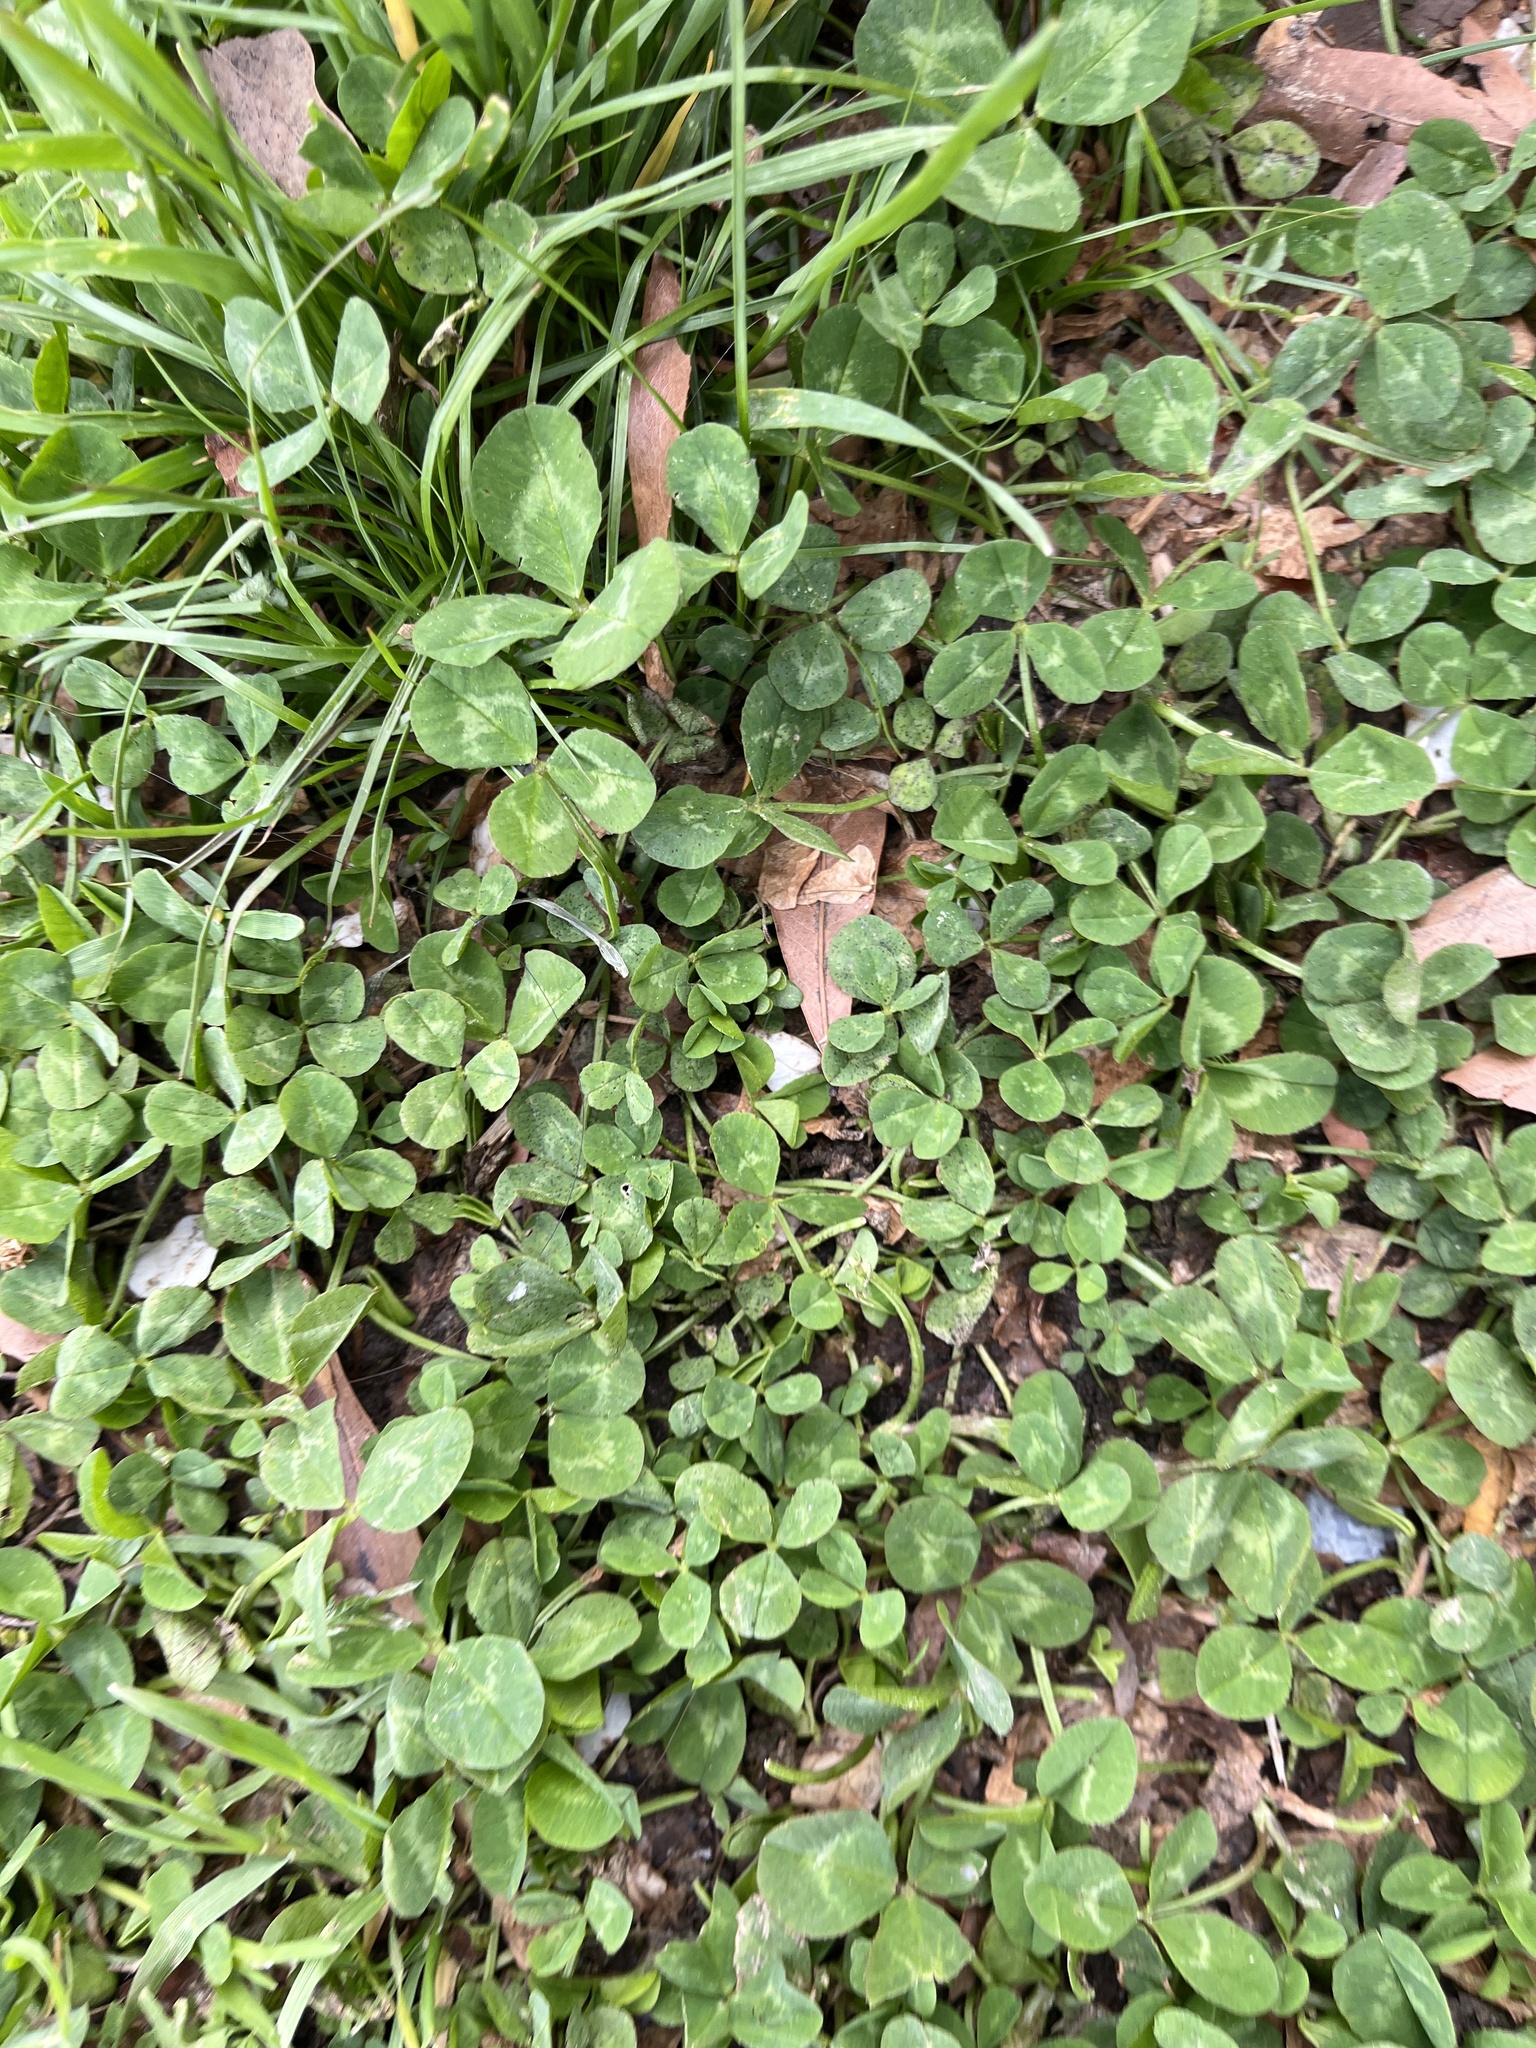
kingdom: Plantae
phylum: Tracheophyta
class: Magnoliopsida
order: Fabales
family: Fabaceae
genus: Trifolium
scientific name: Trifolium repens
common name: White clover
